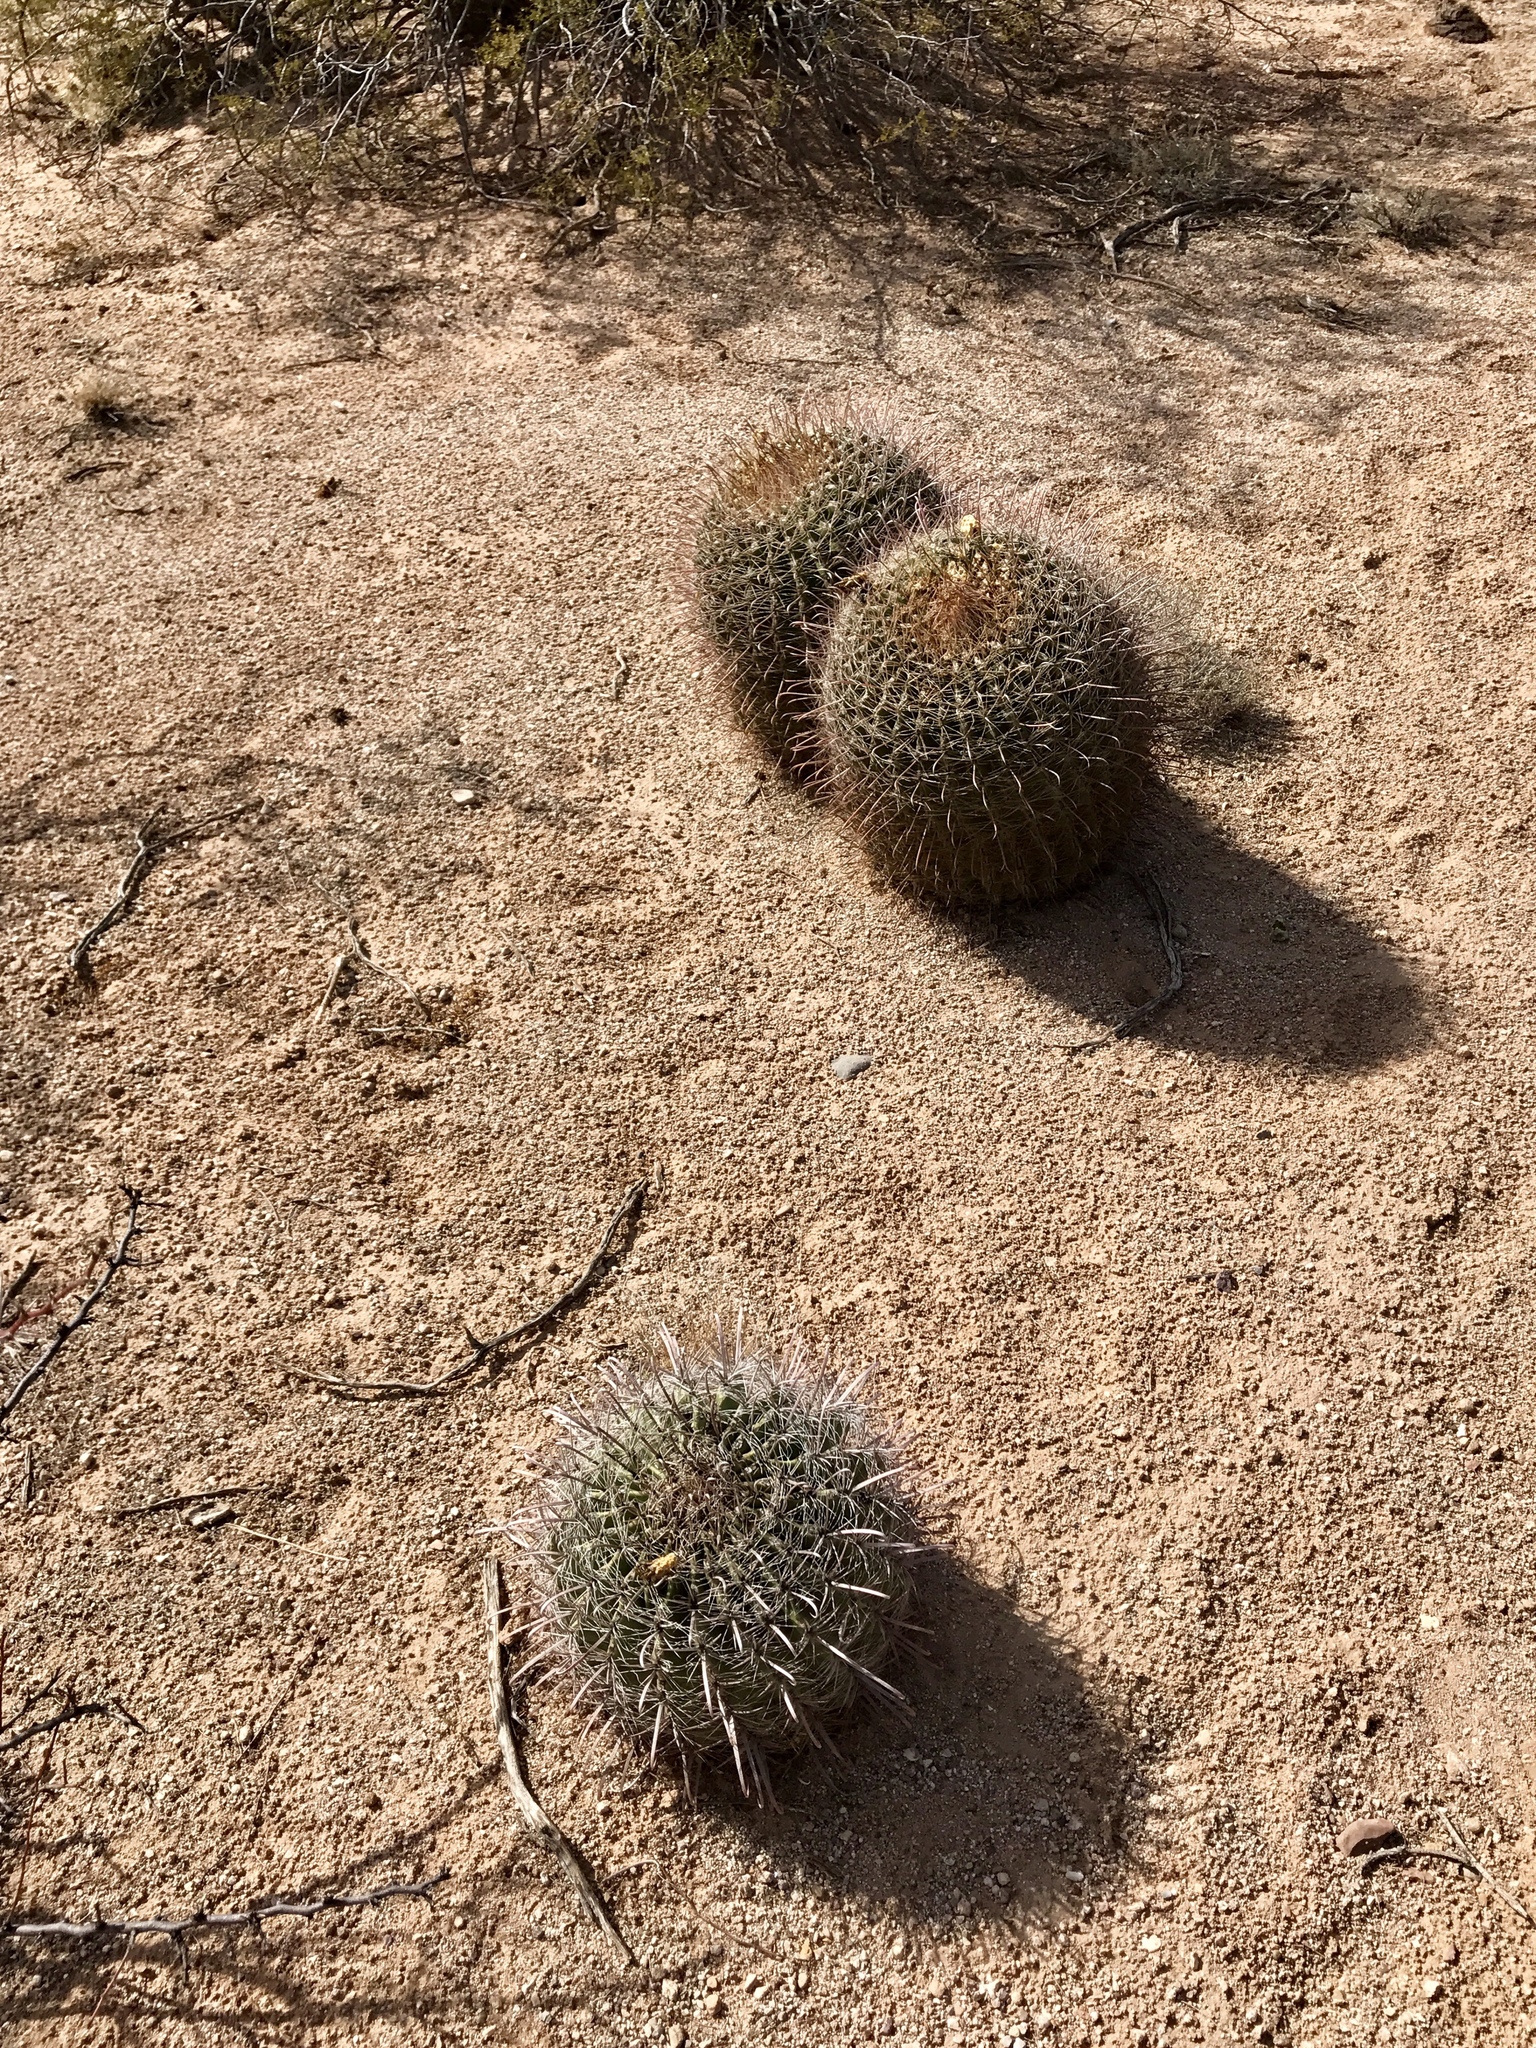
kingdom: Plantae
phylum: Tracheophyta
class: Magnoliopsida
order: Caryophyllales
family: Cactaceae
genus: Ferocactus
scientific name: Ferocactus wislizeni
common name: Candy barrel cactus
